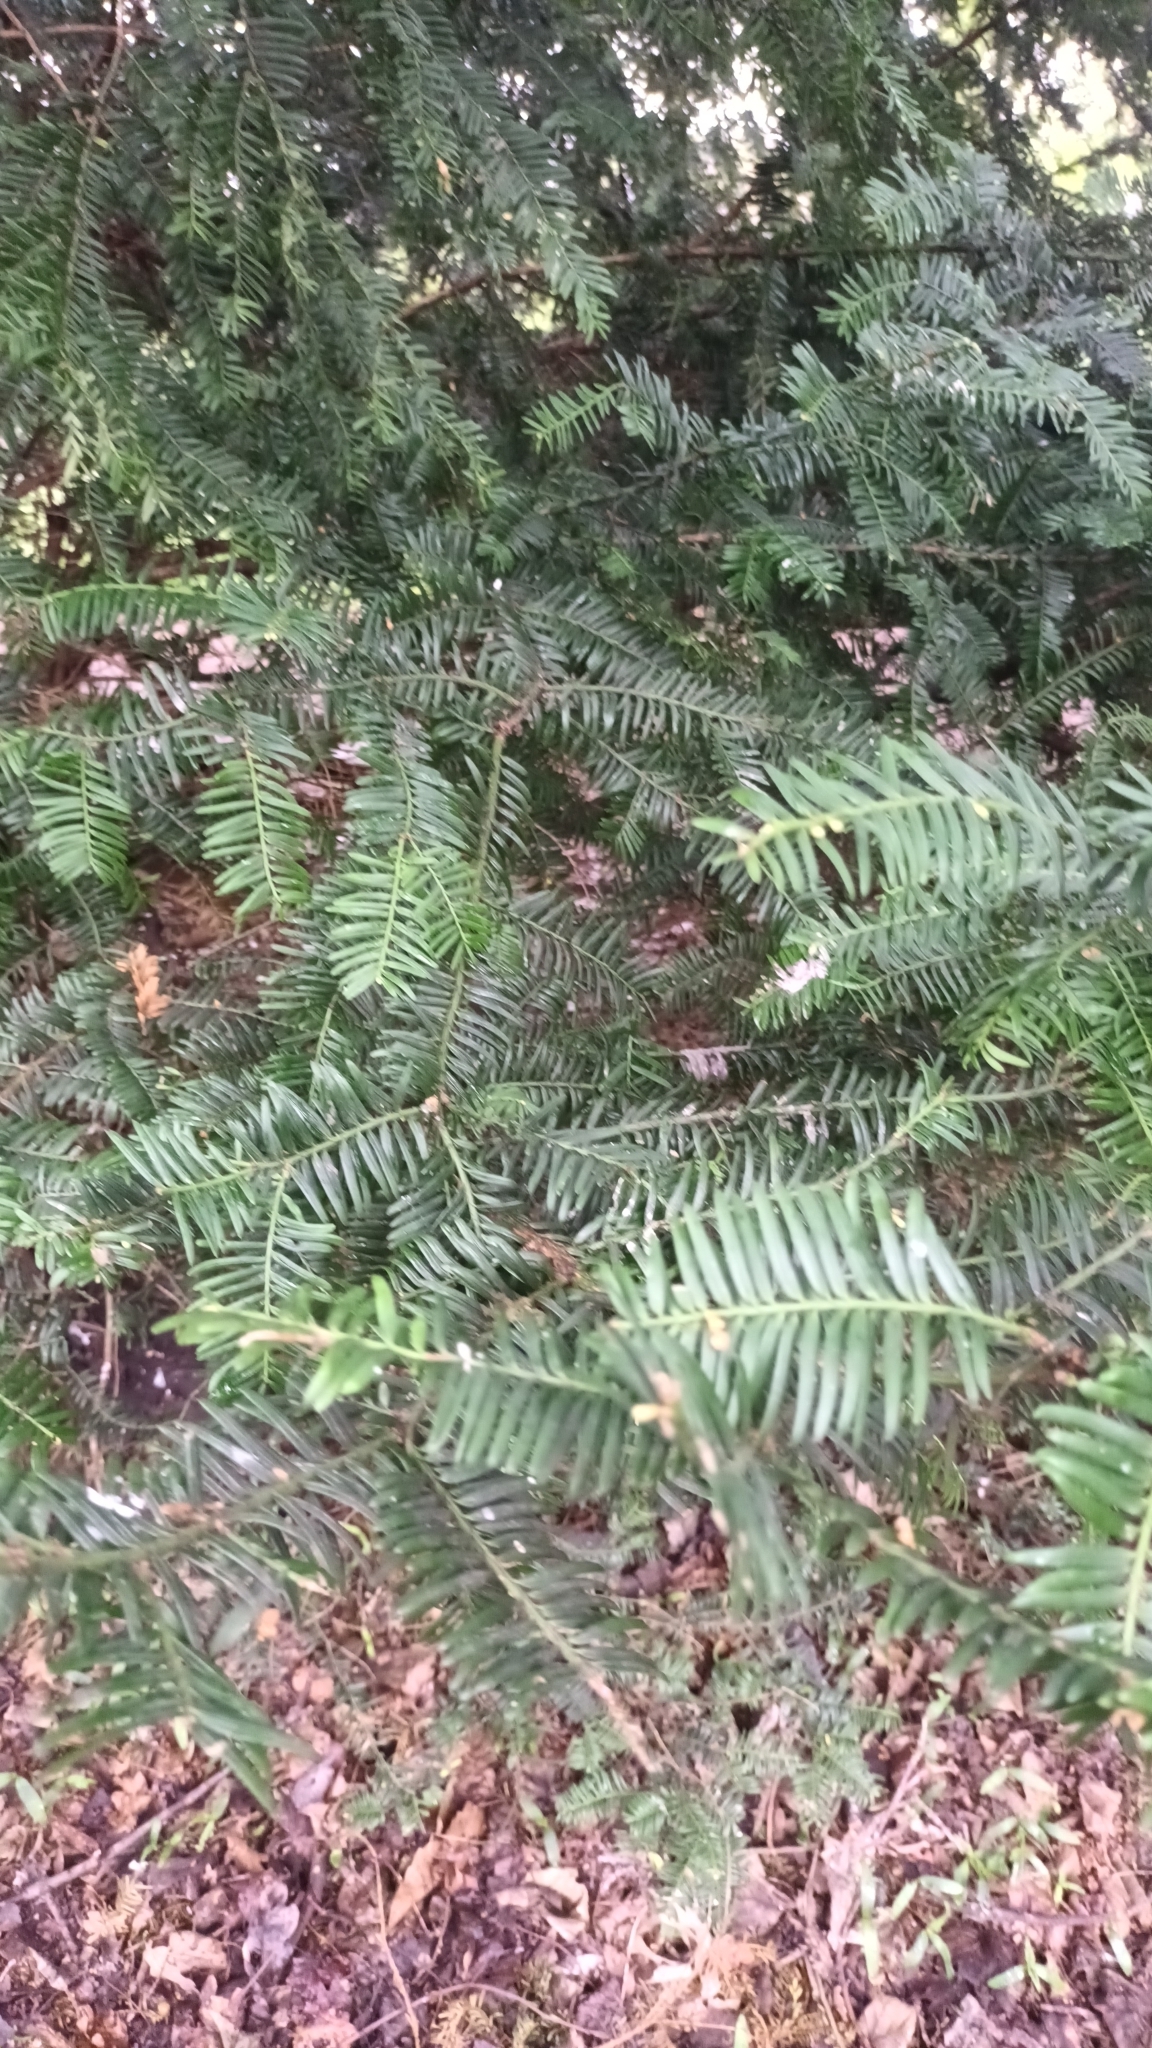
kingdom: Plantae
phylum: Tracheophyta
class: Pinopsida
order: Pinales
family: Taxaceae
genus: Taxus
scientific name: Taxus baccata
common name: Yew
